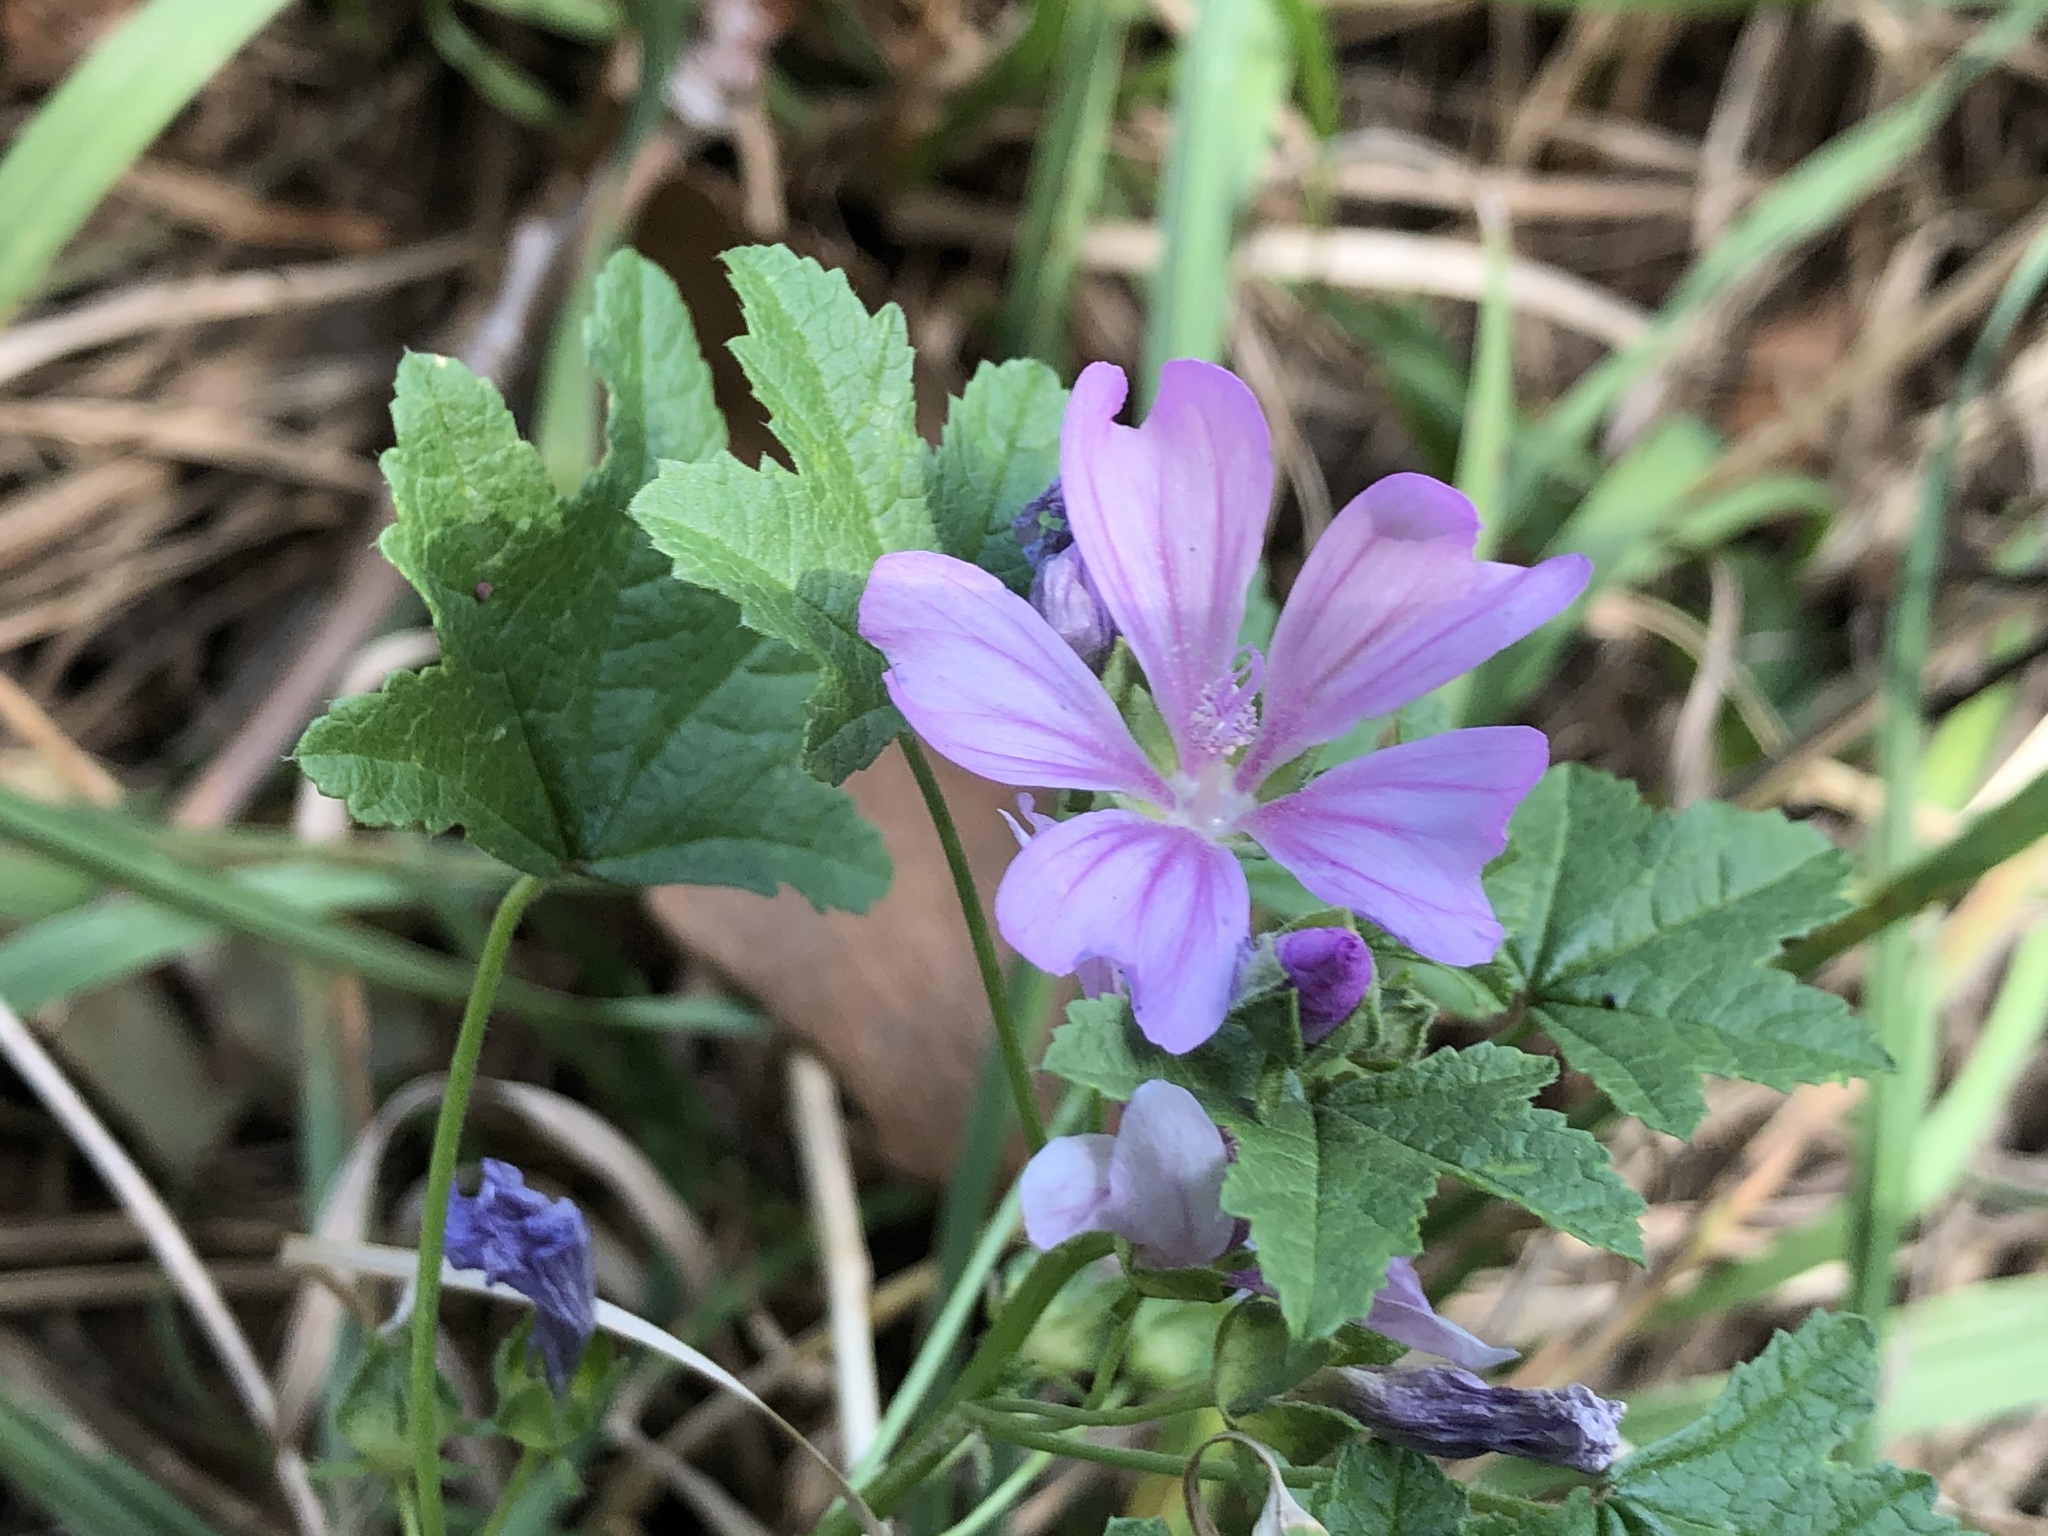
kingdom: Plantae
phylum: Tracheophyta
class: Magnoliopsida
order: Malvales
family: Malvaceae
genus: Malva
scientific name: Malva sylvestris
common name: Common mallow
